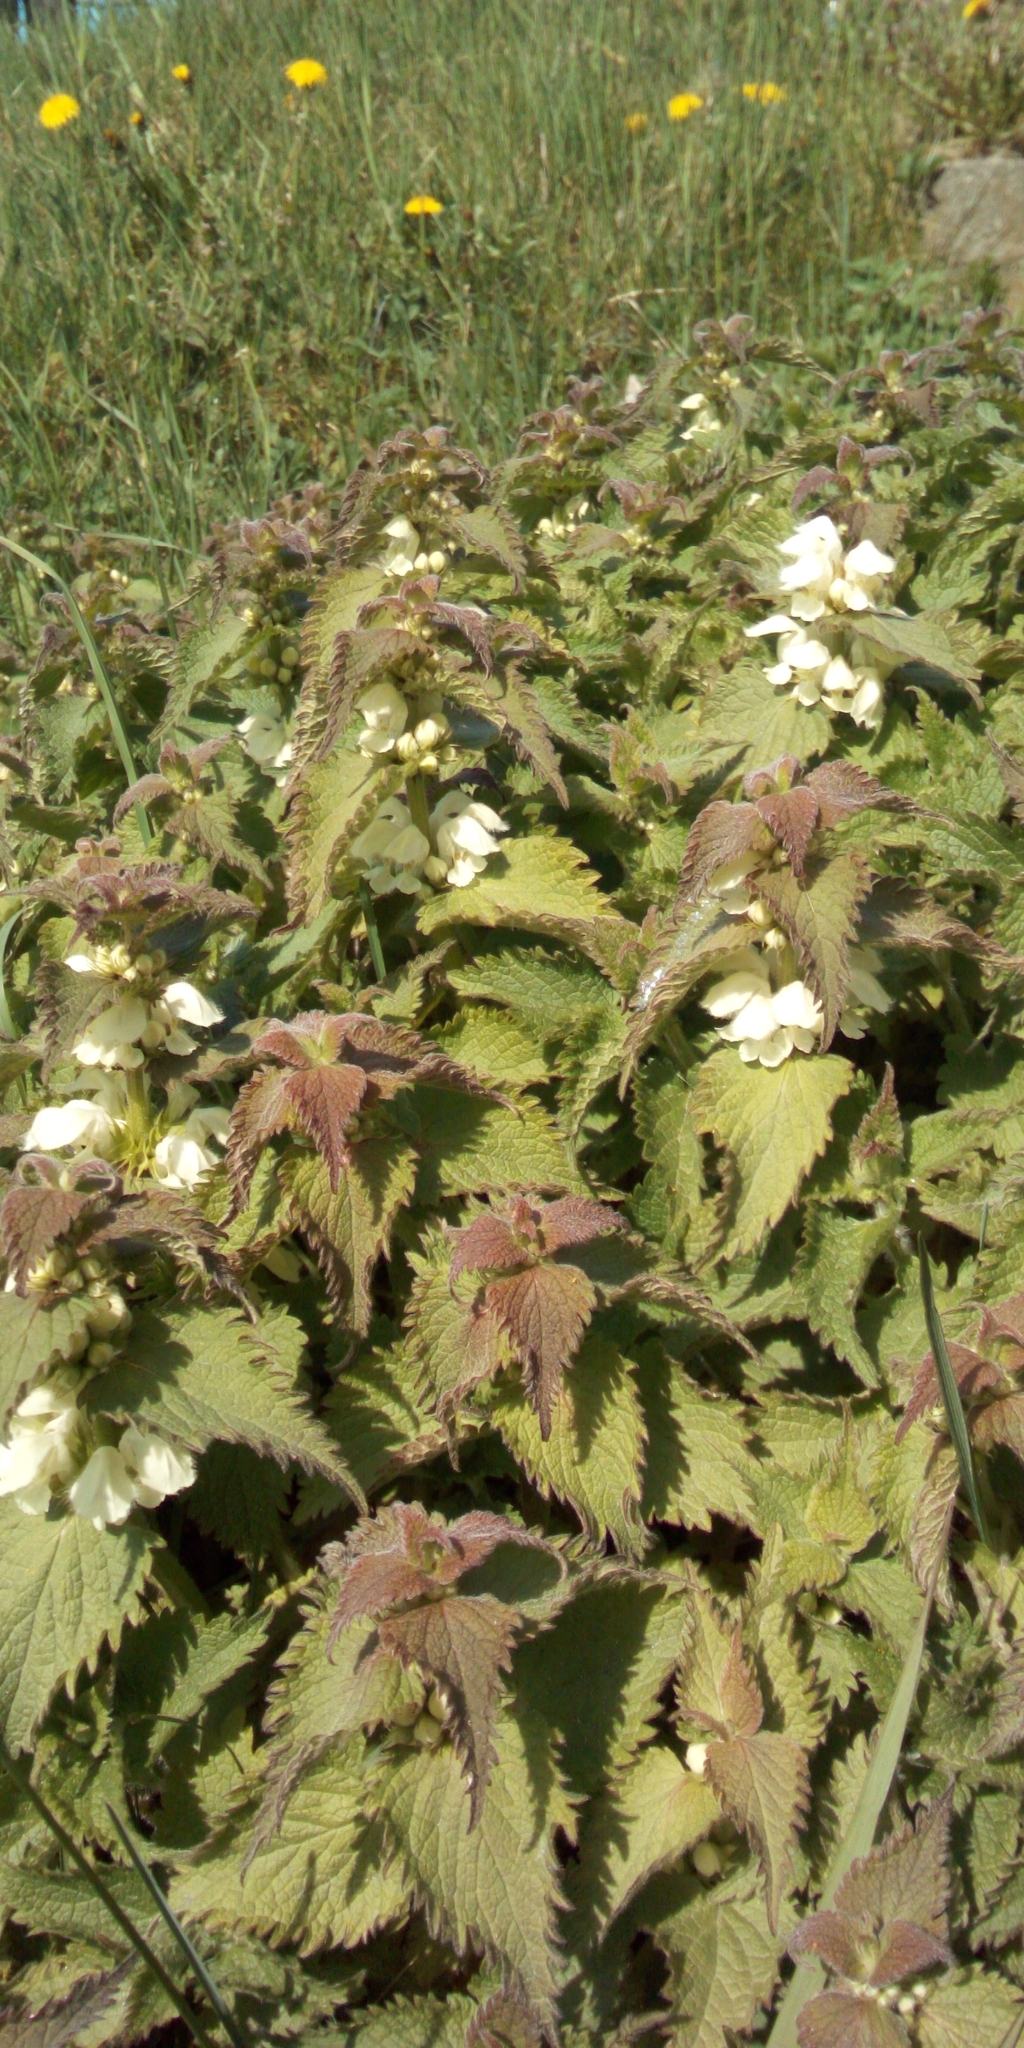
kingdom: Plantae
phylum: Tracheophyta
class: Magnoliopsida
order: Lamiales
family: Lamiaceae
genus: Lamium
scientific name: Lamium album
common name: White dead-nettle
